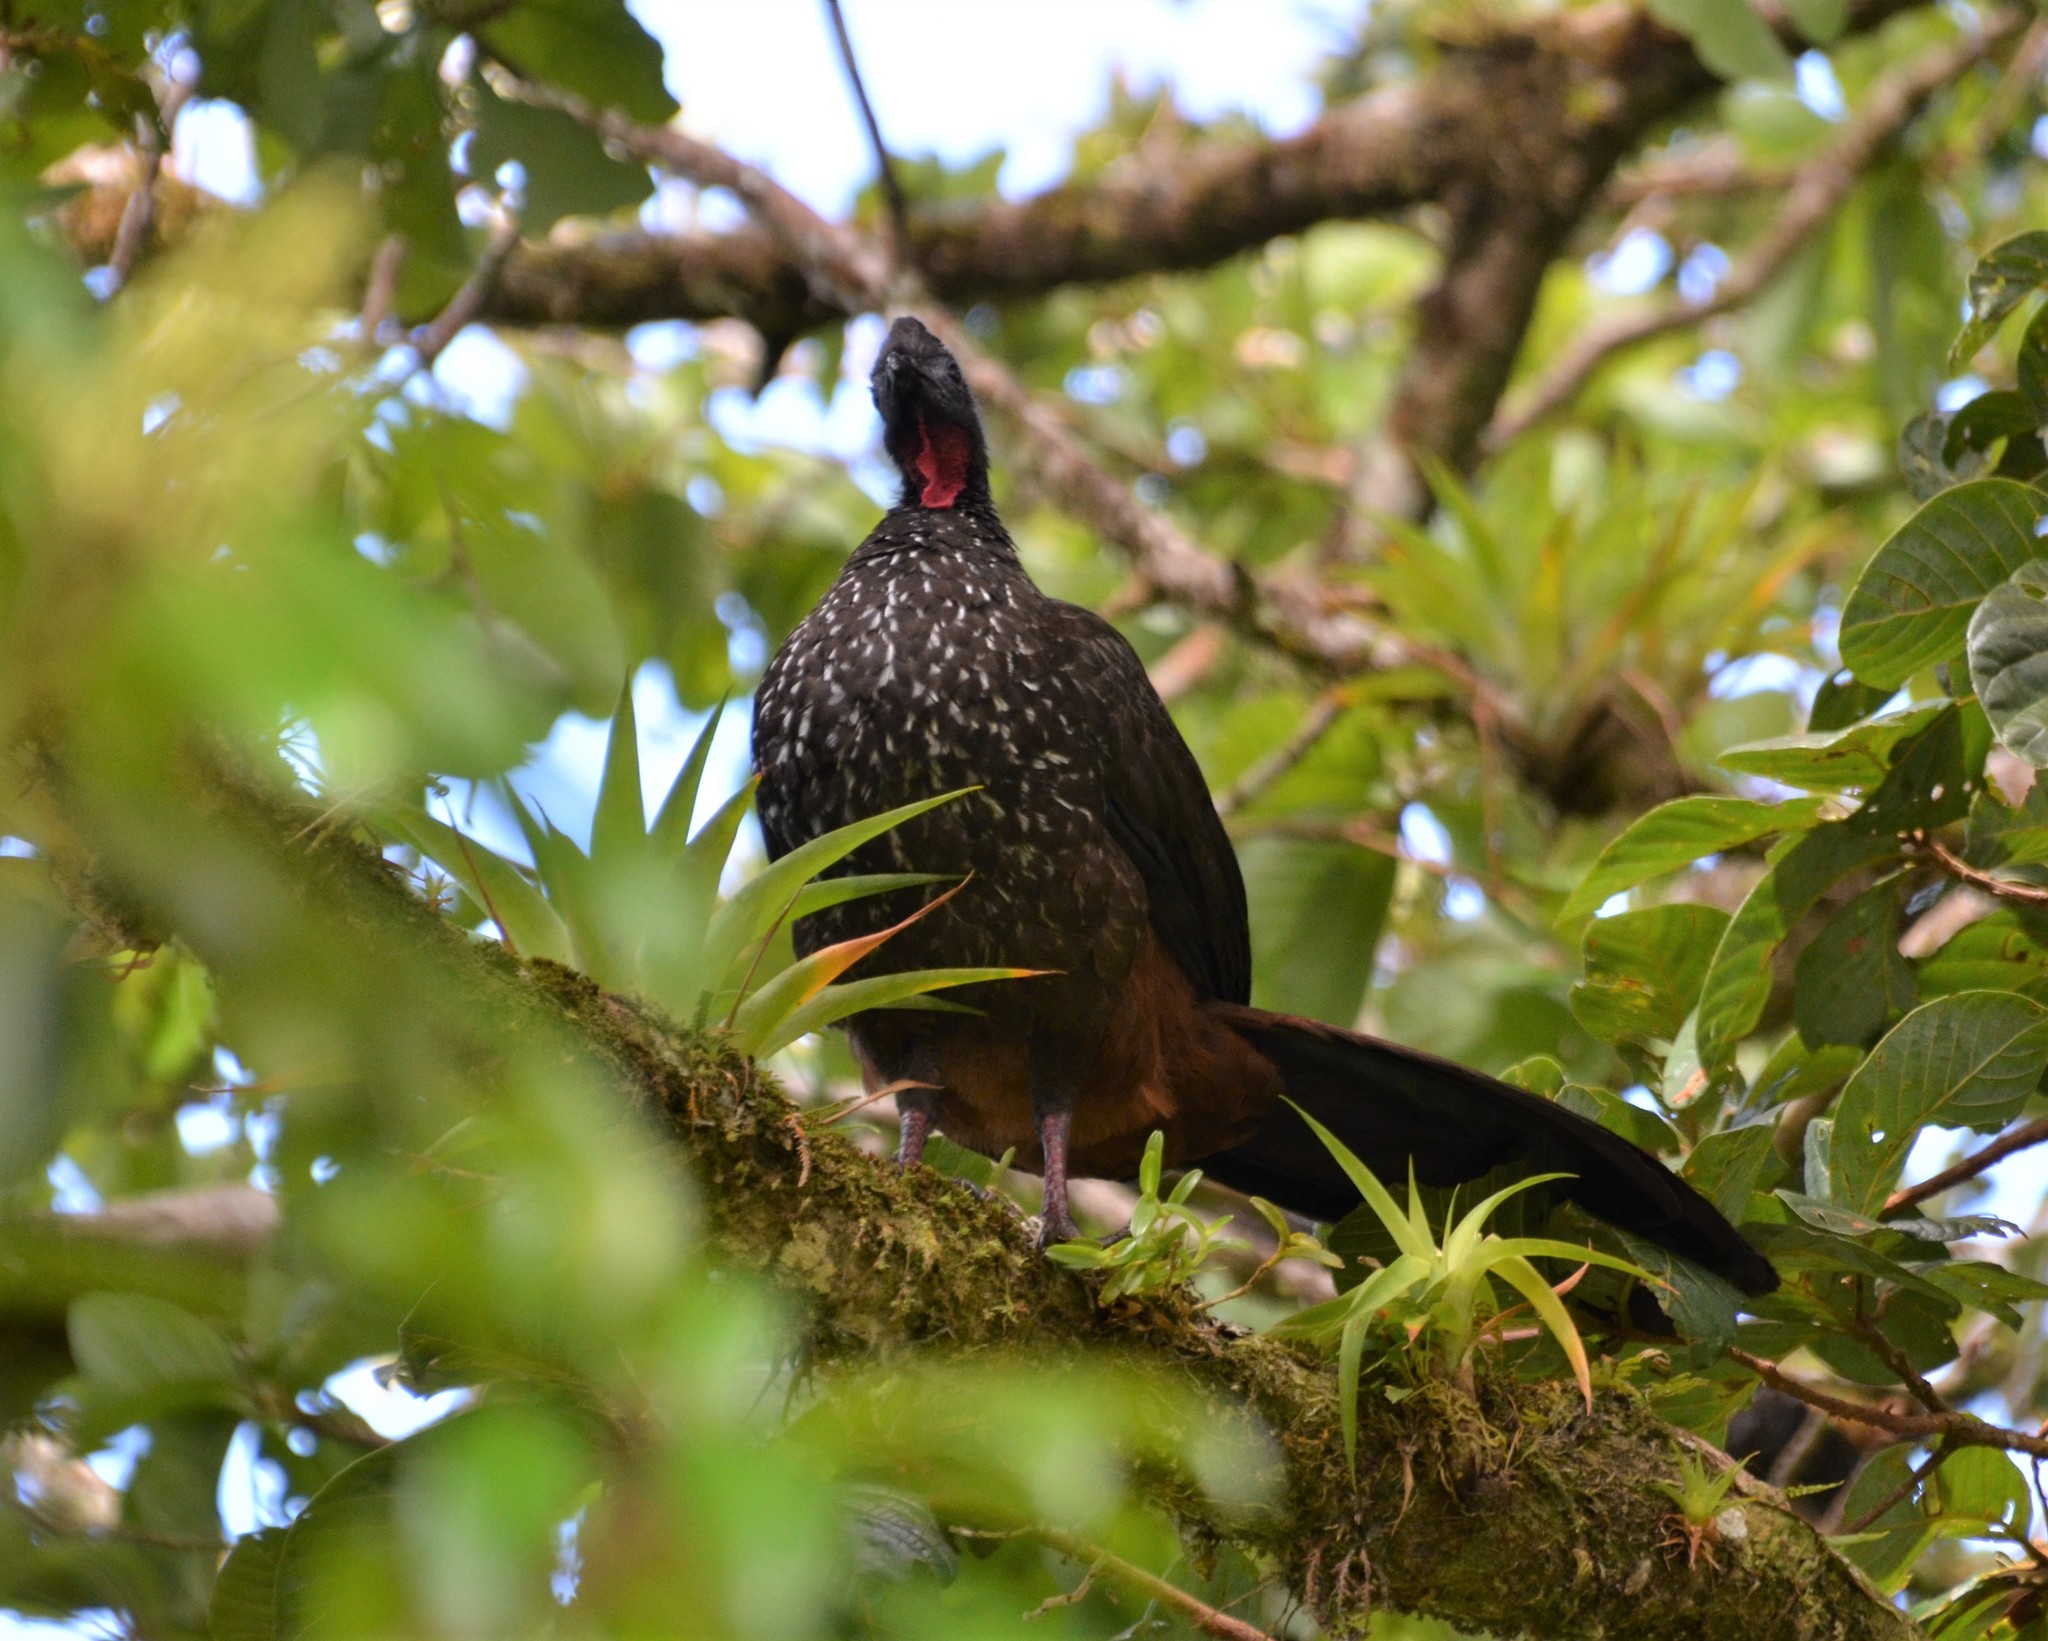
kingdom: Animalia
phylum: Chordata
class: Aves
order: Galliformes
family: Cracidae
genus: Penelope
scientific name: Penelope purpurascens
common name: Crested guan
